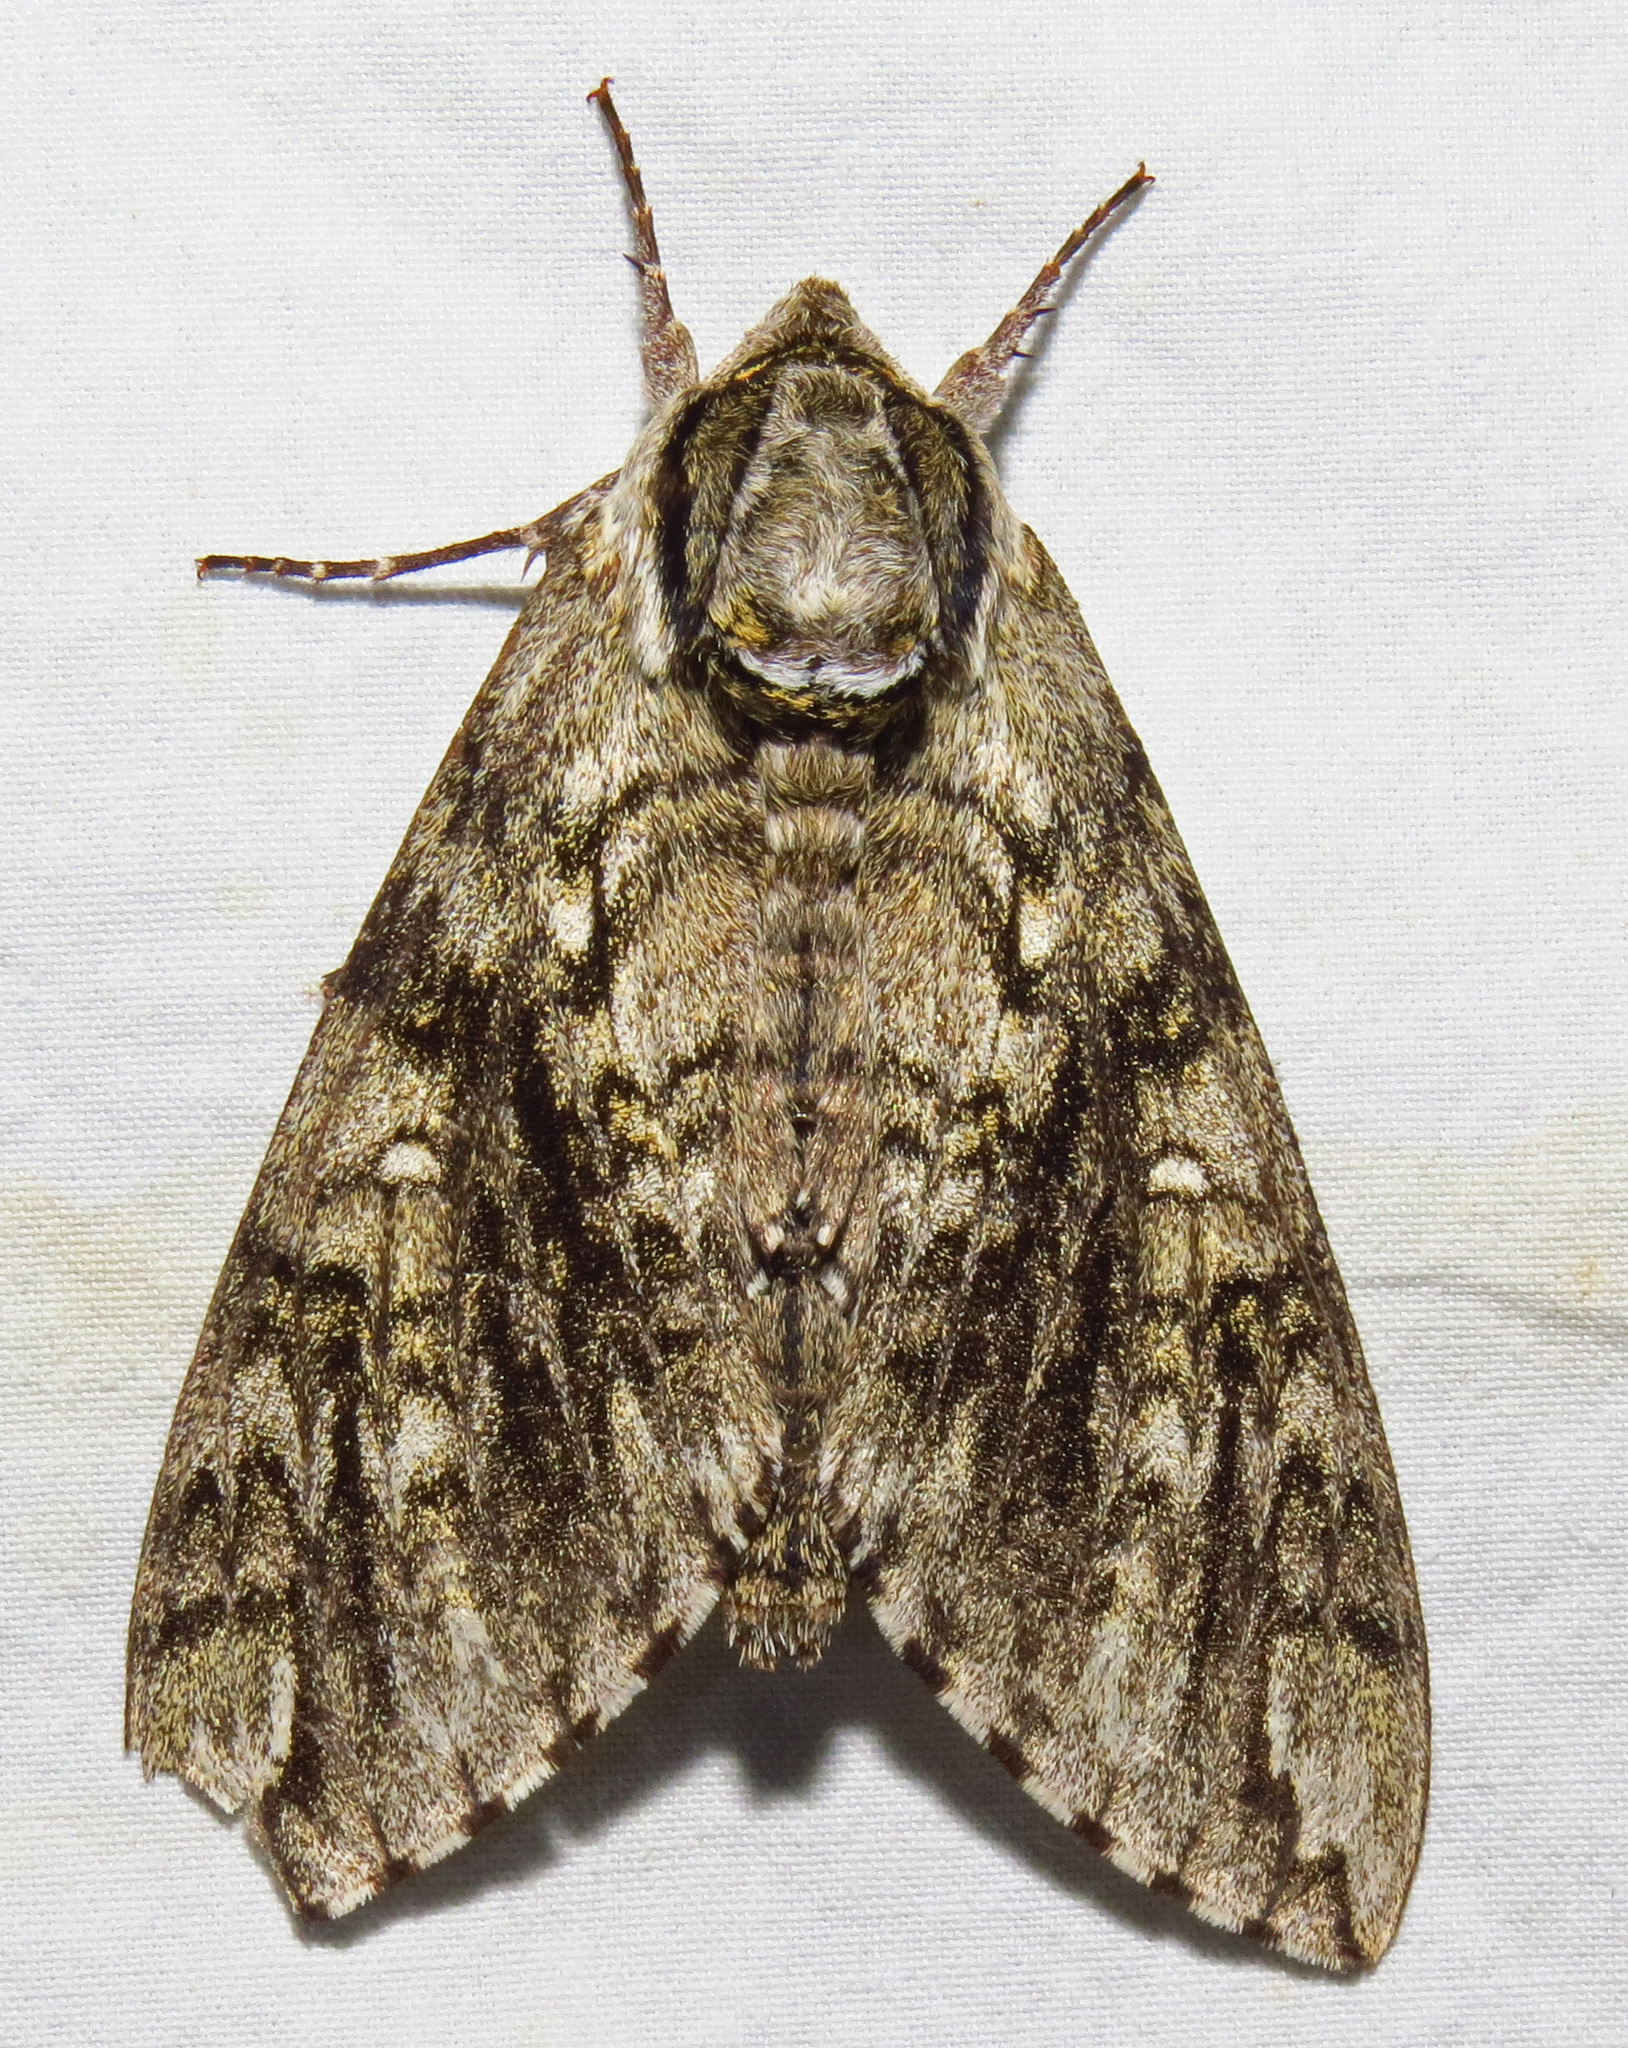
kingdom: Animalia
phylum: Arthropoda
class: Insecta
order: Lepidoptera
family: Sphingidae
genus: Ceratomia
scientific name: Ceratomia undulosa
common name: Waved sphinx
